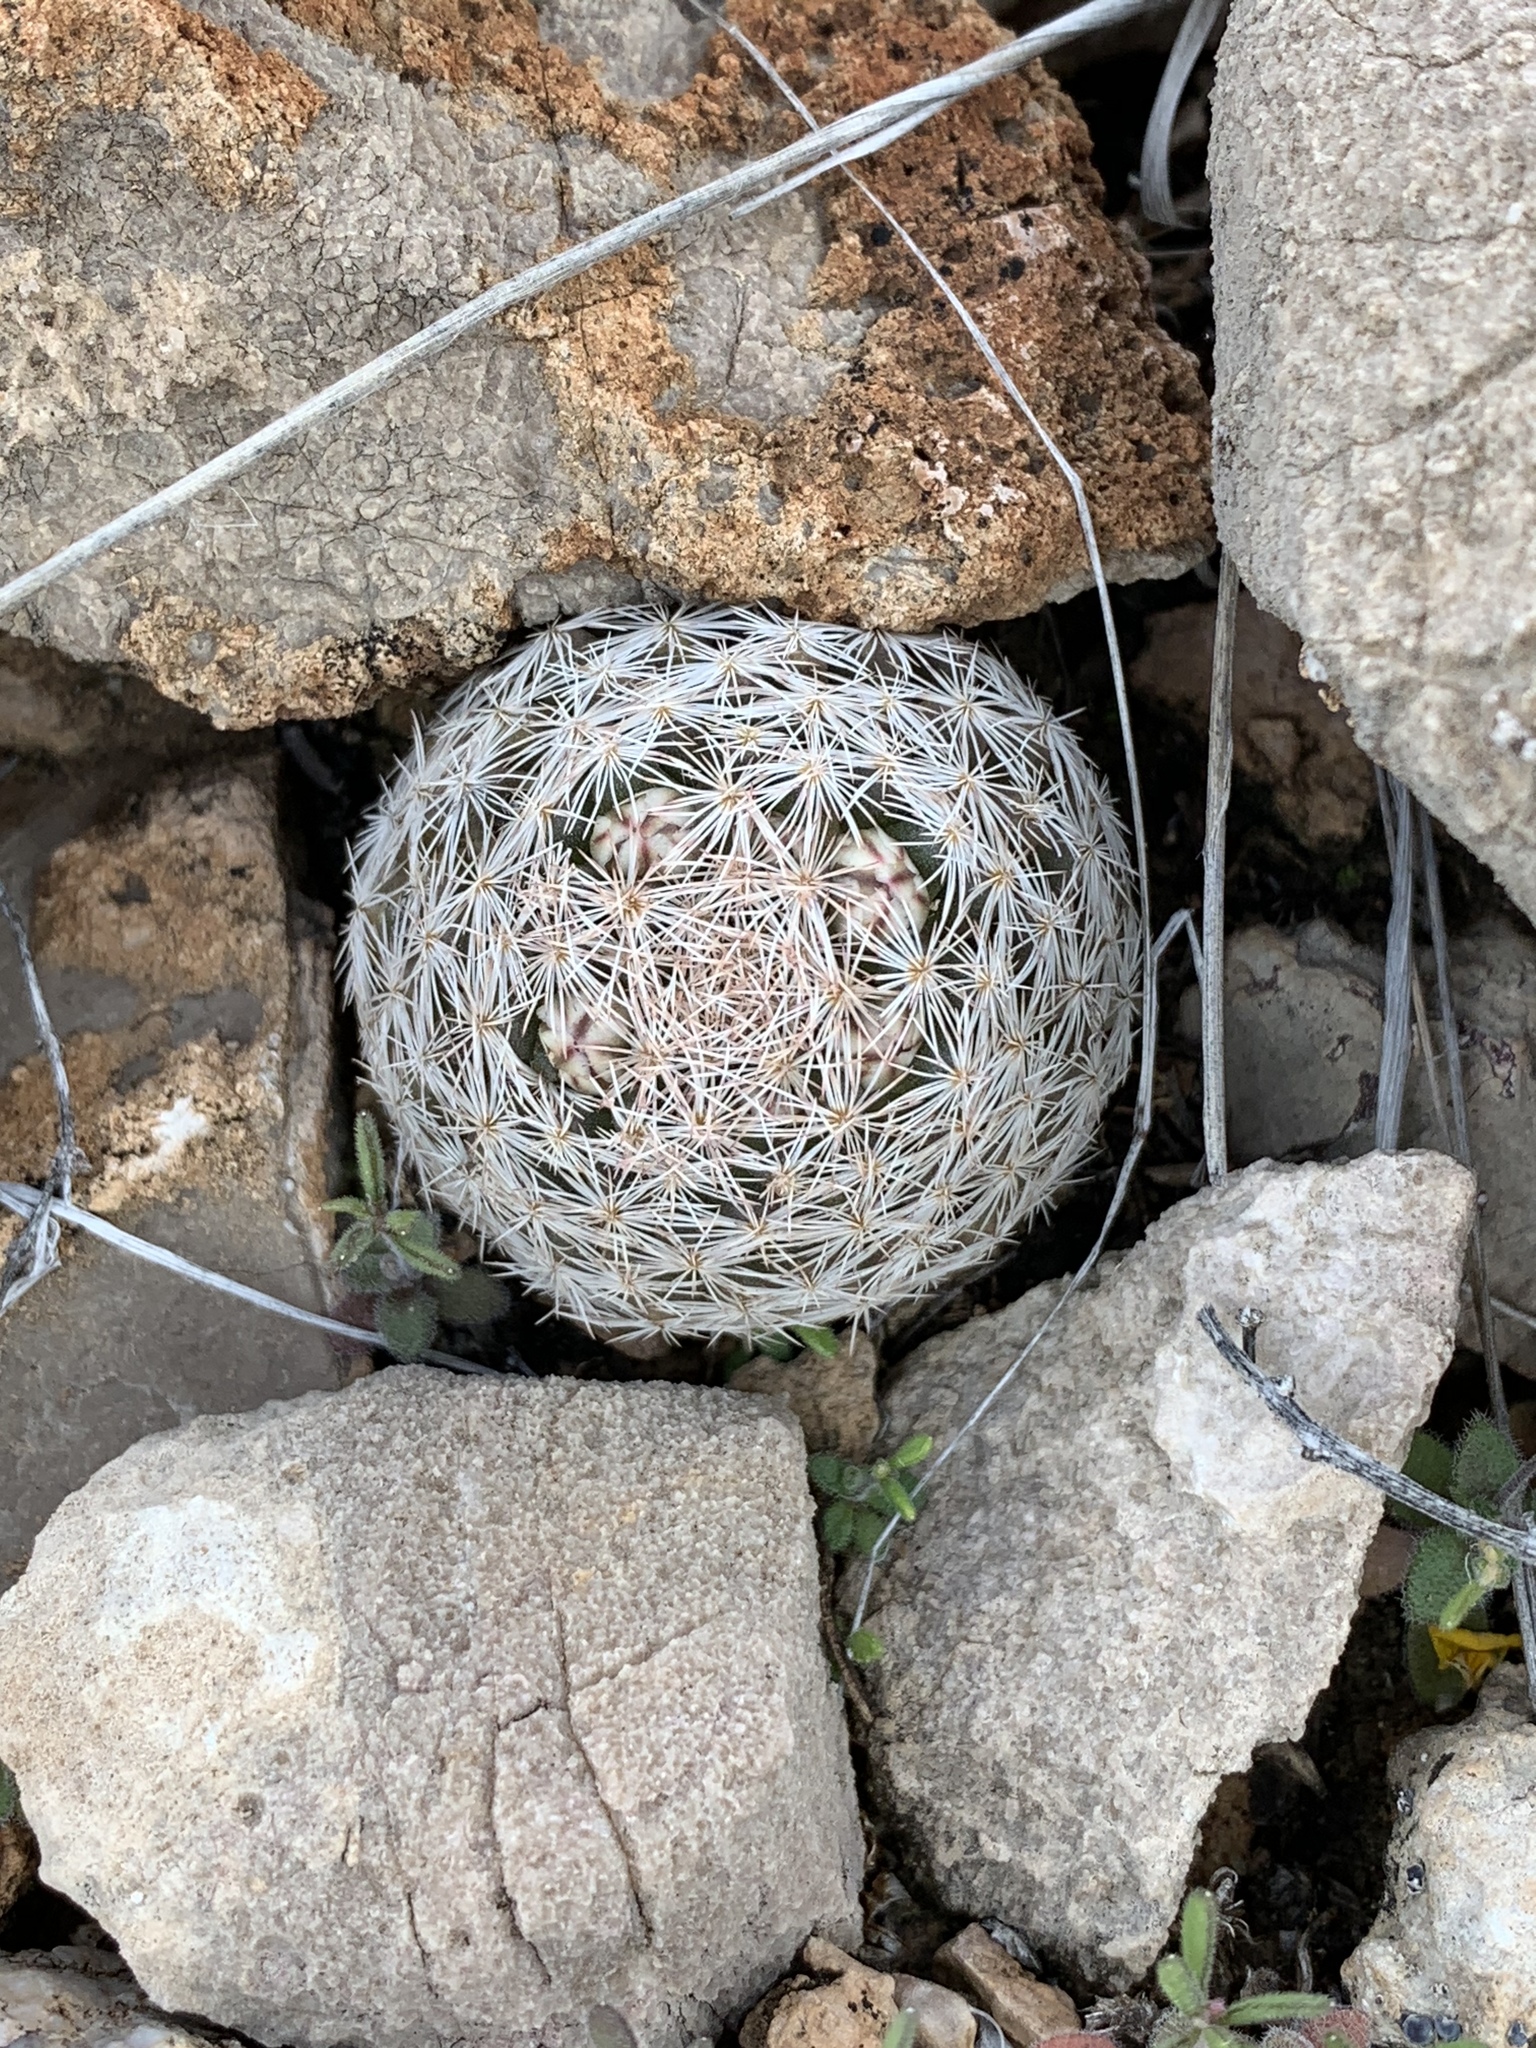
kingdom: Plantae
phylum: Tracheophyta
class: Magnoliopsida
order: Caryophyllales
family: Cactaceae
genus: Mammillaria
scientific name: Mammillaria lasiacantha
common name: Lace-spine nipple cactus
